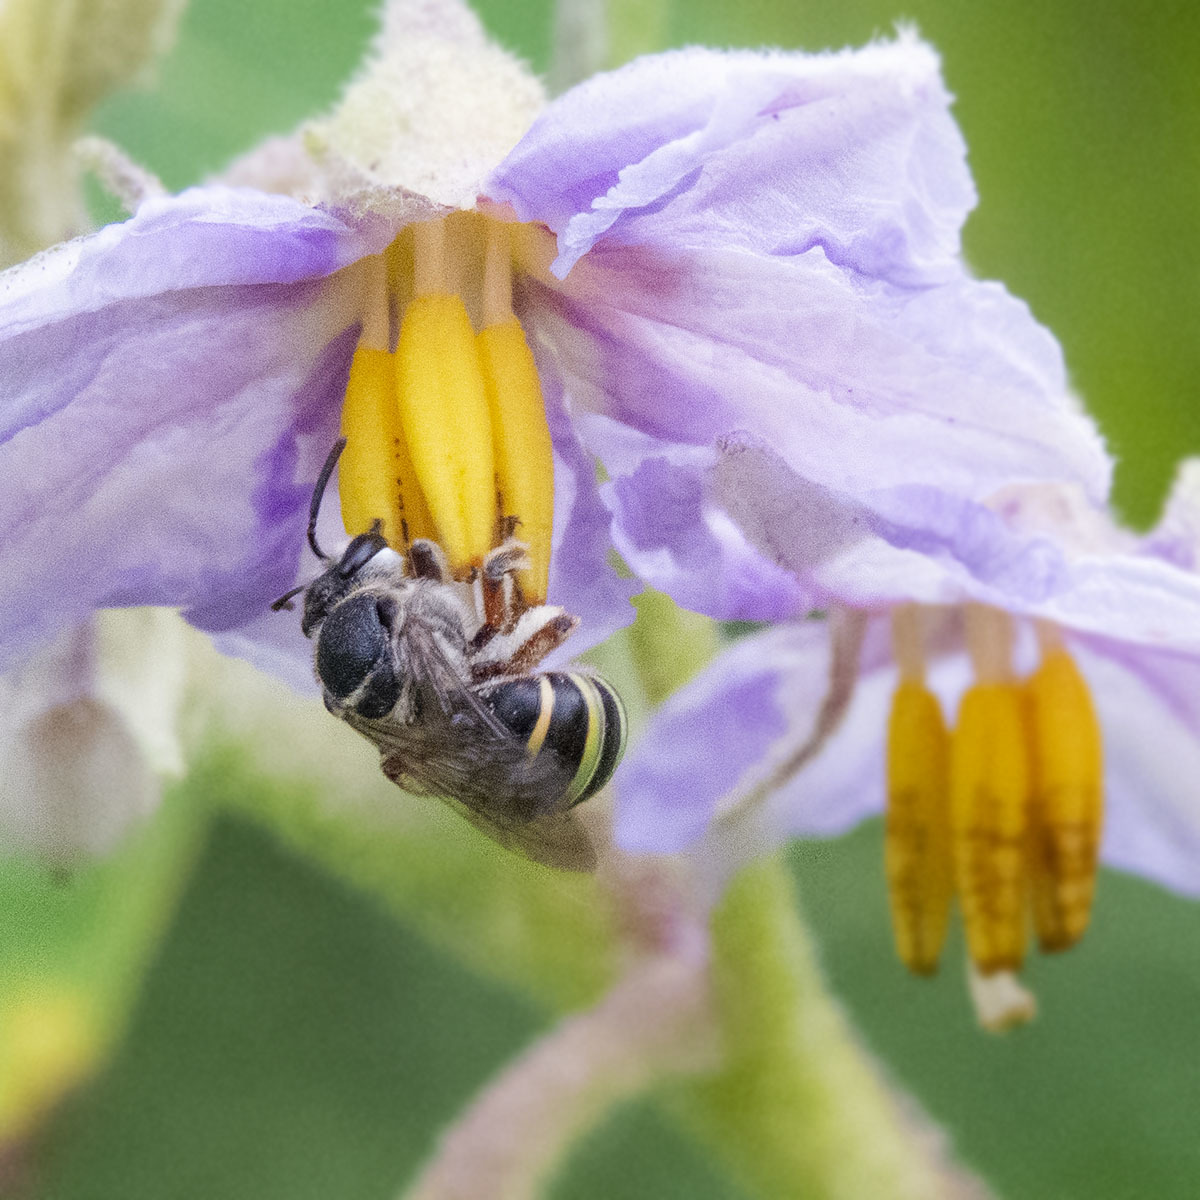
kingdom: Animalia
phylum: Arthropoda
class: Insecta
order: Hymenoptera
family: Halictidae
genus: Nomia
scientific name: Nomia westwoodi
